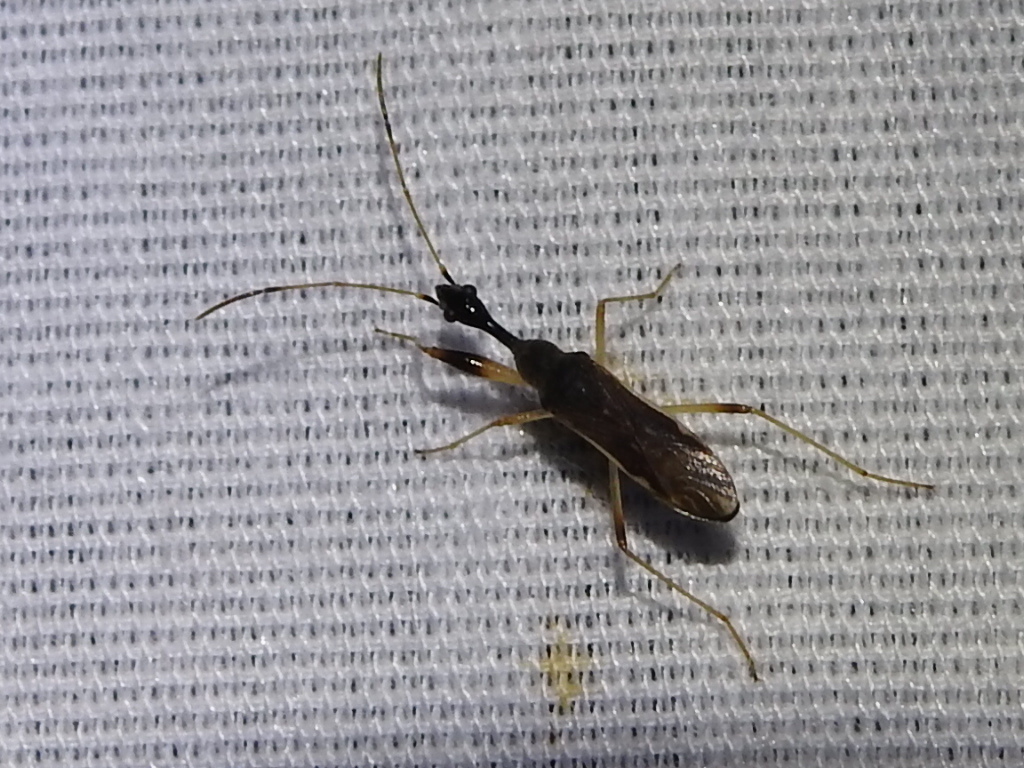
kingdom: Animalia
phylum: Arthropoda
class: Insecta
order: Hemiptera
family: Rhyparochromidae
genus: Myodocha
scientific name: Myodocha serripes
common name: Long-necked seed bug
